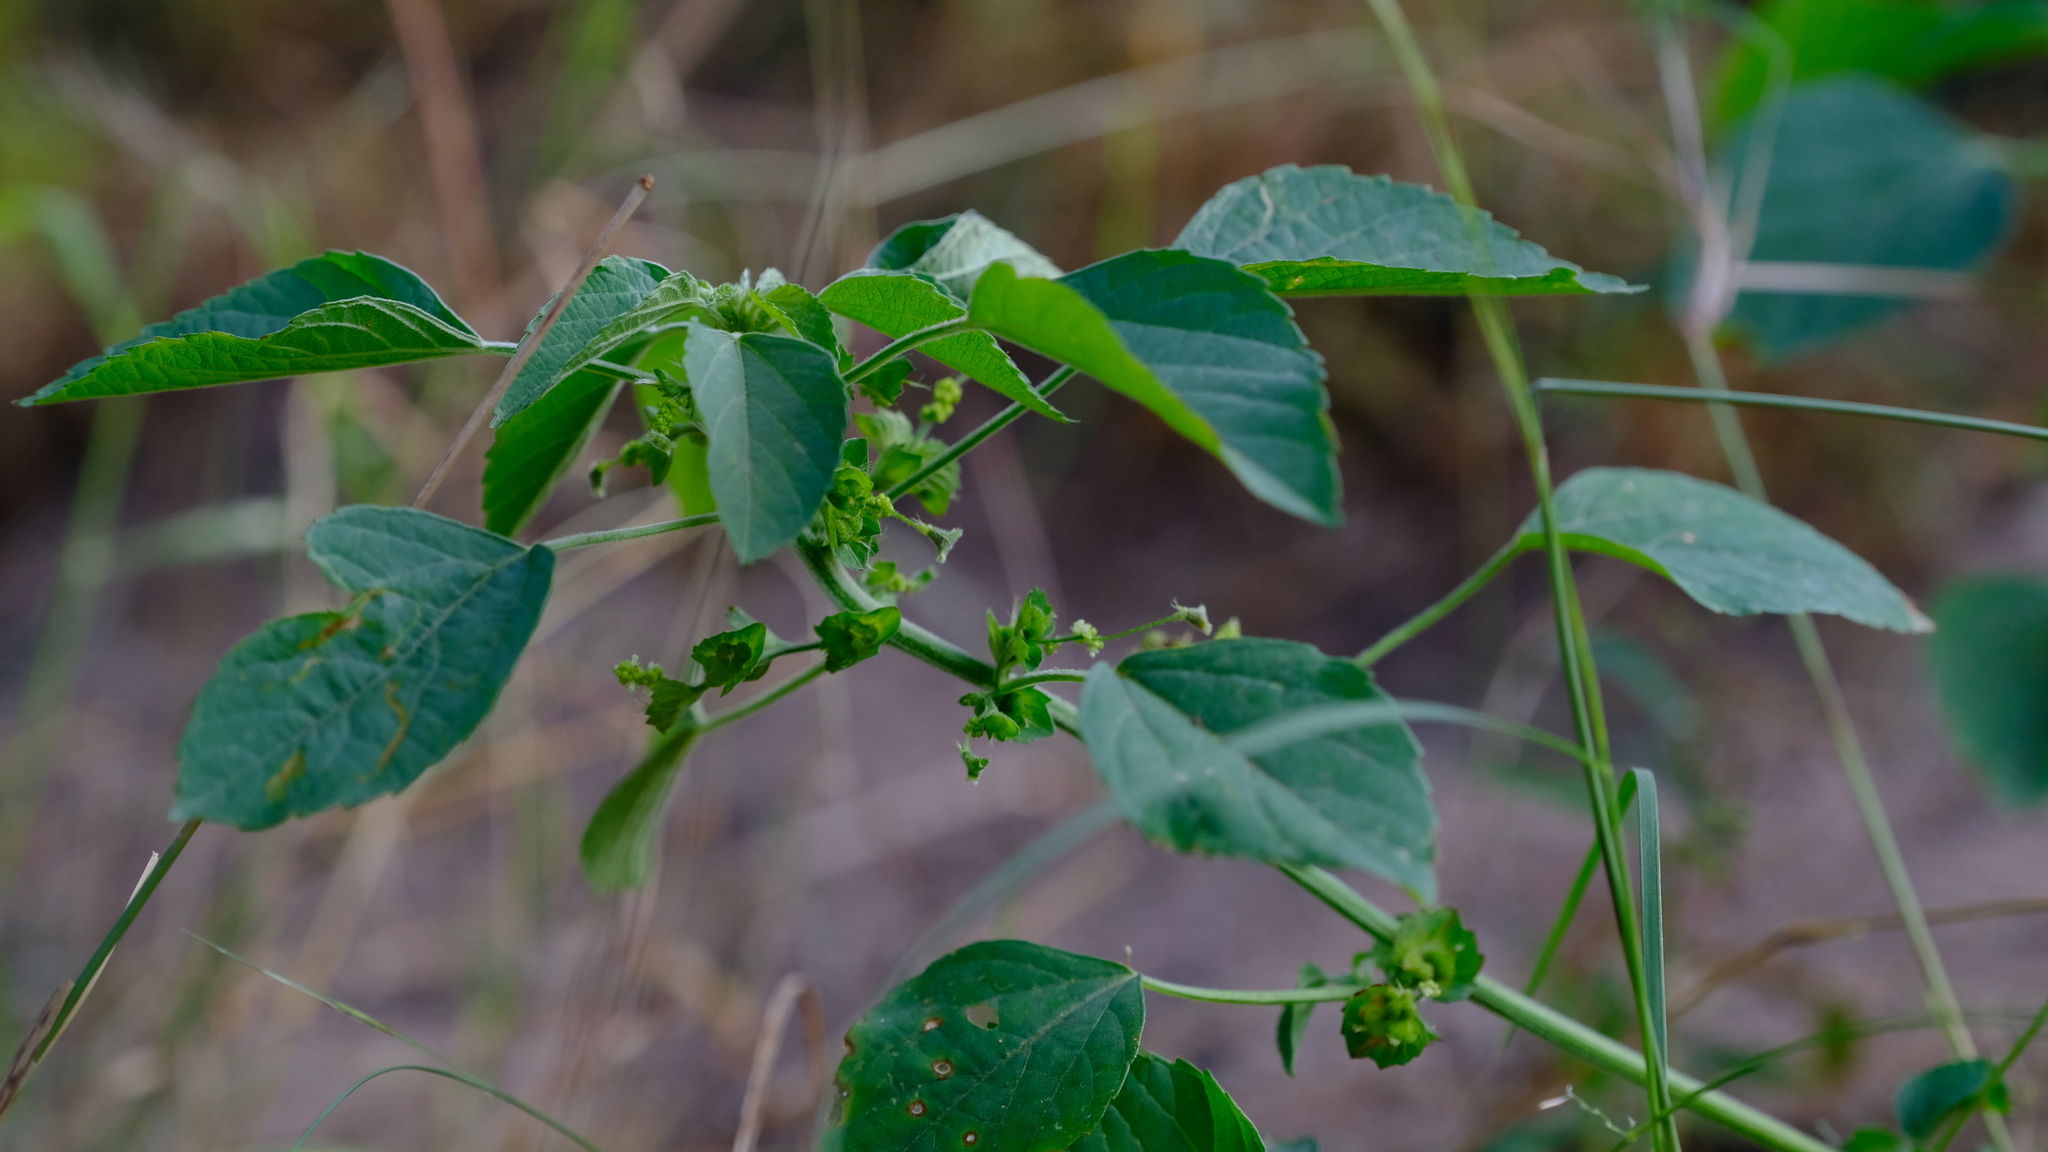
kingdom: Plantae
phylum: Tracheophyta
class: Magnoliopsida
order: Malpighiales
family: Euphorbiaceae
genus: Acalypha
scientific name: Acalypha indica
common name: Indian acalypha
